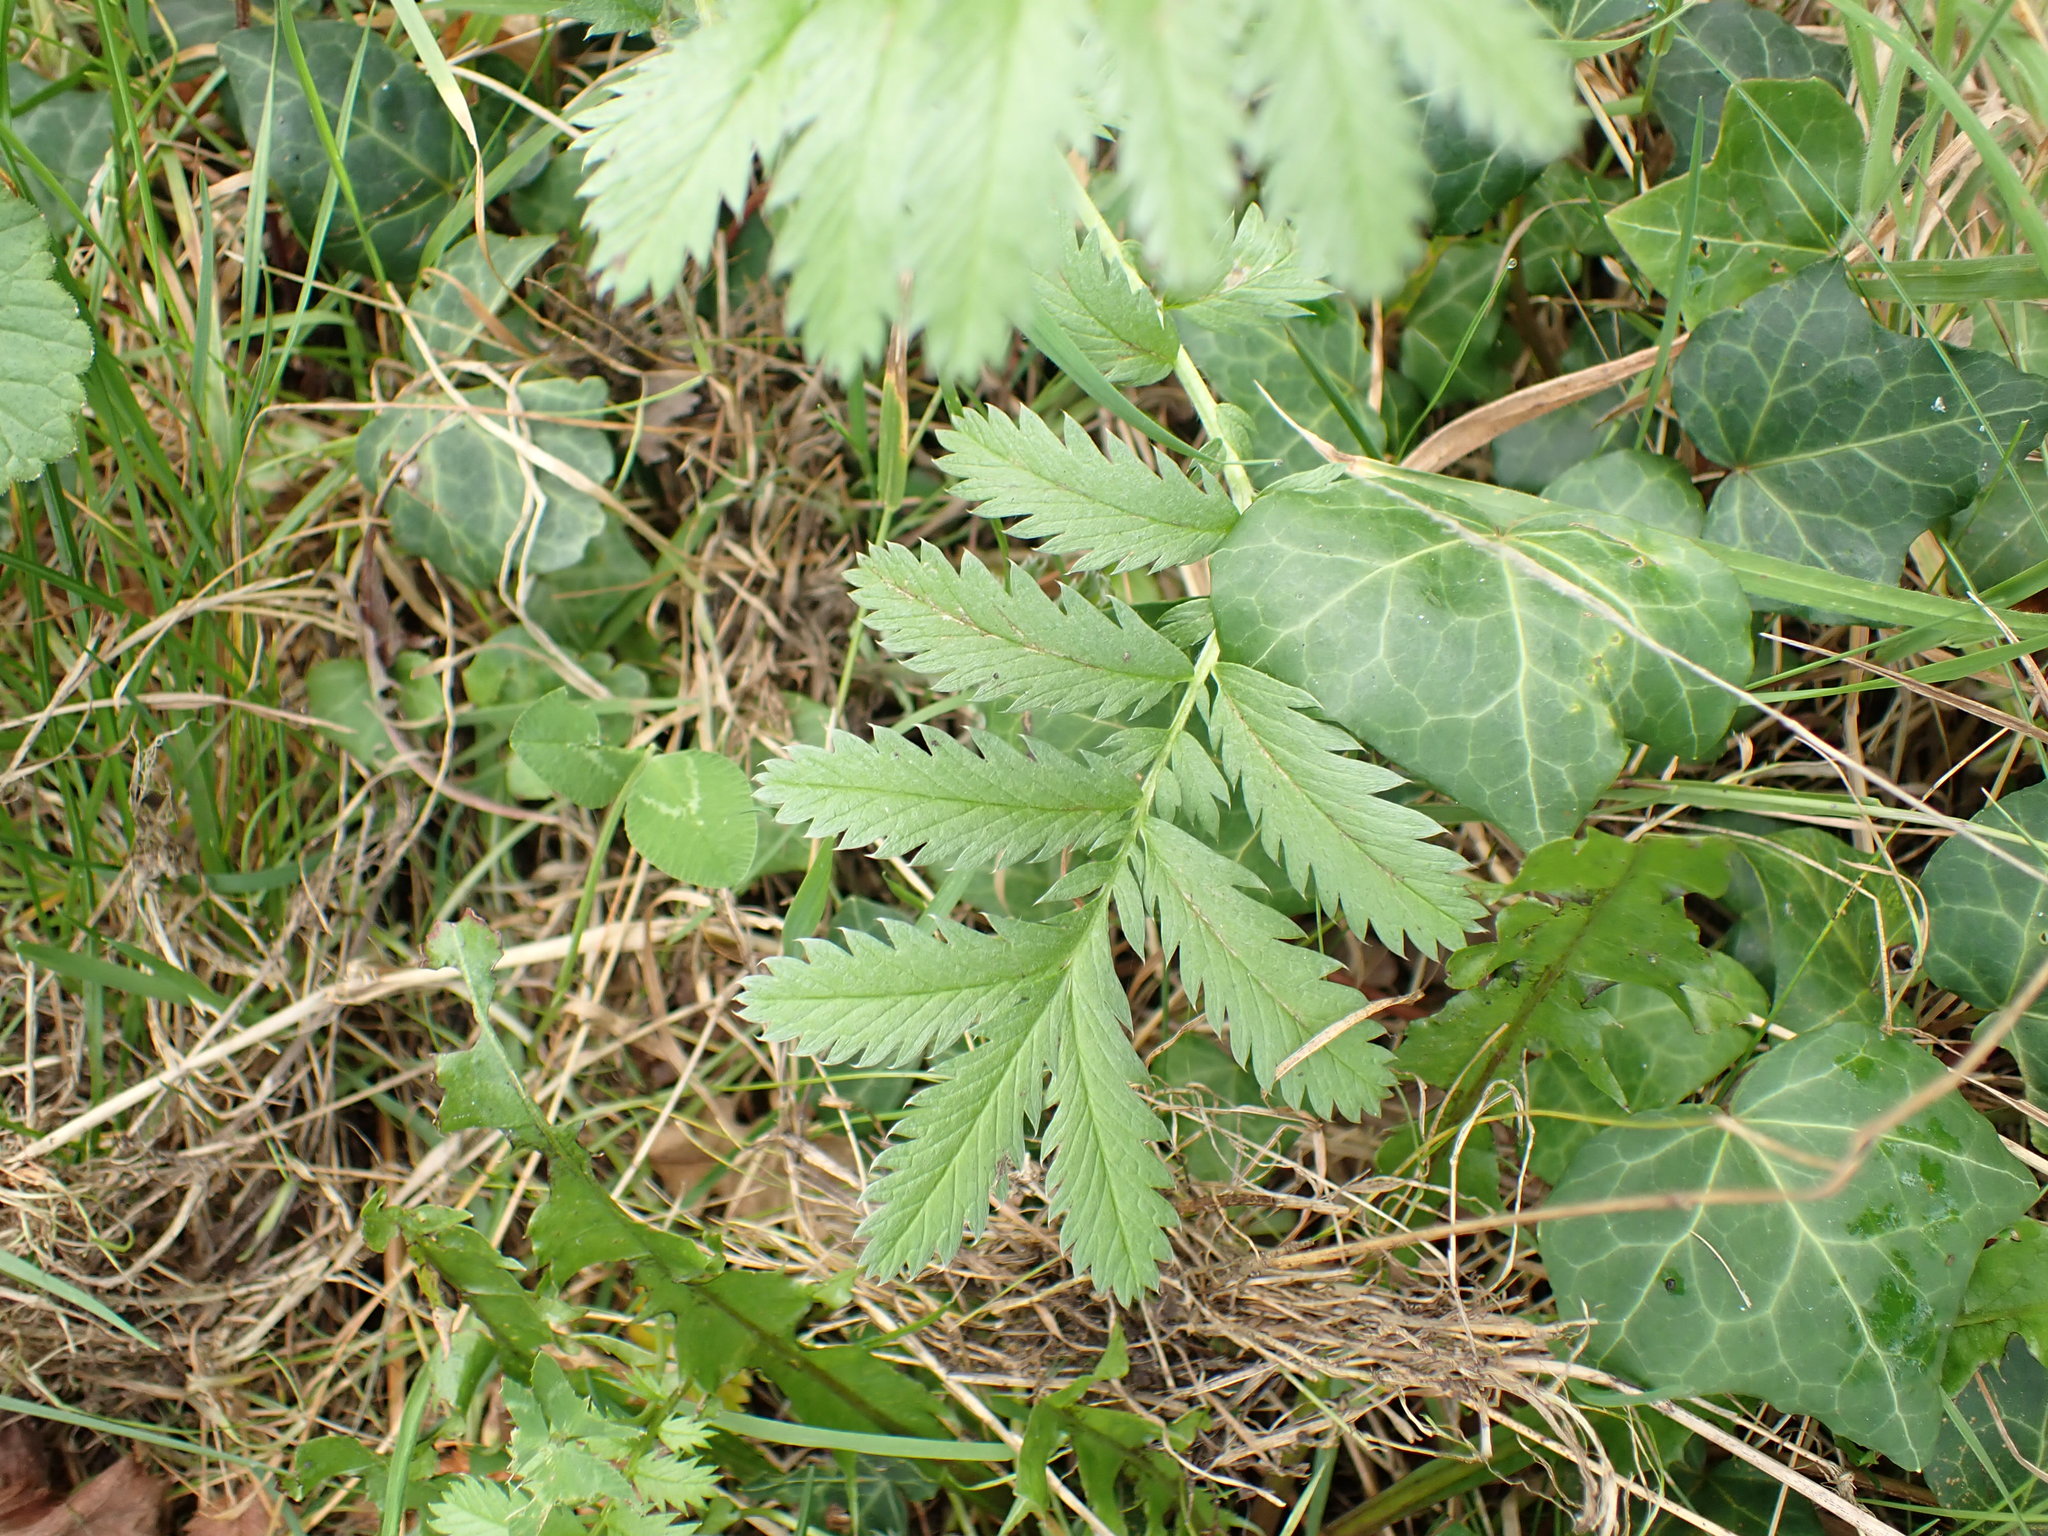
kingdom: Plantae
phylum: Tracheophyta
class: Magnoliopsida
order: Rosales
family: Rosaceae
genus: Argentina
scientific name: Argentina anserina
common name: Common silverweed
